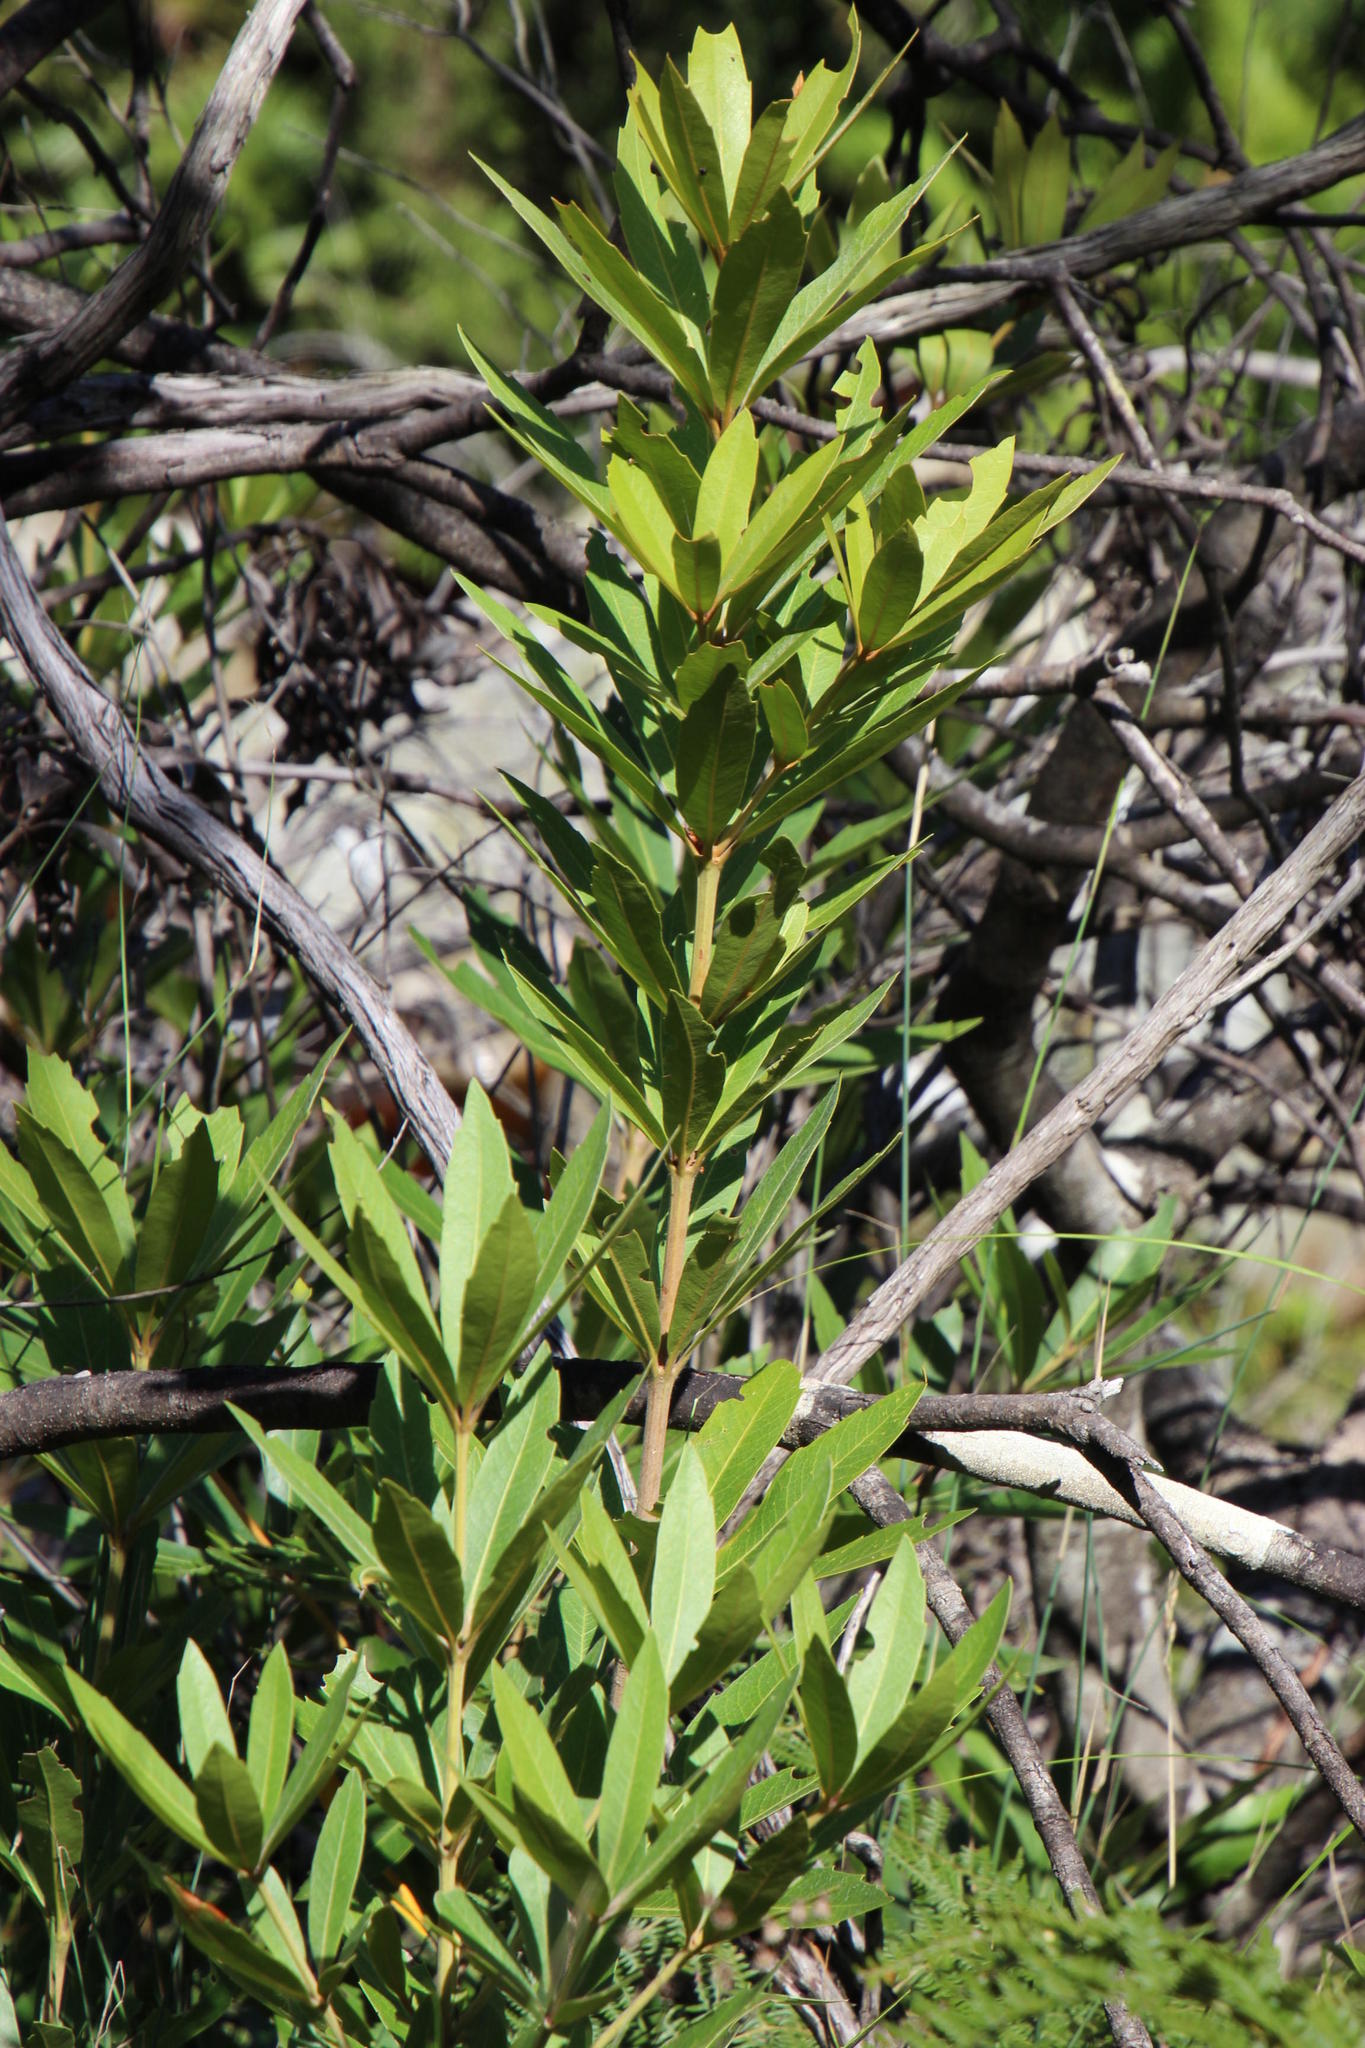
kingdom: Plantae
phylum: Tracheophyta
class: Magnoliopsida
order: Proteales
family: Proteaceae
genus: Brabejum
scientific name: Brabejum stellatifolium
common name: Wild almond
